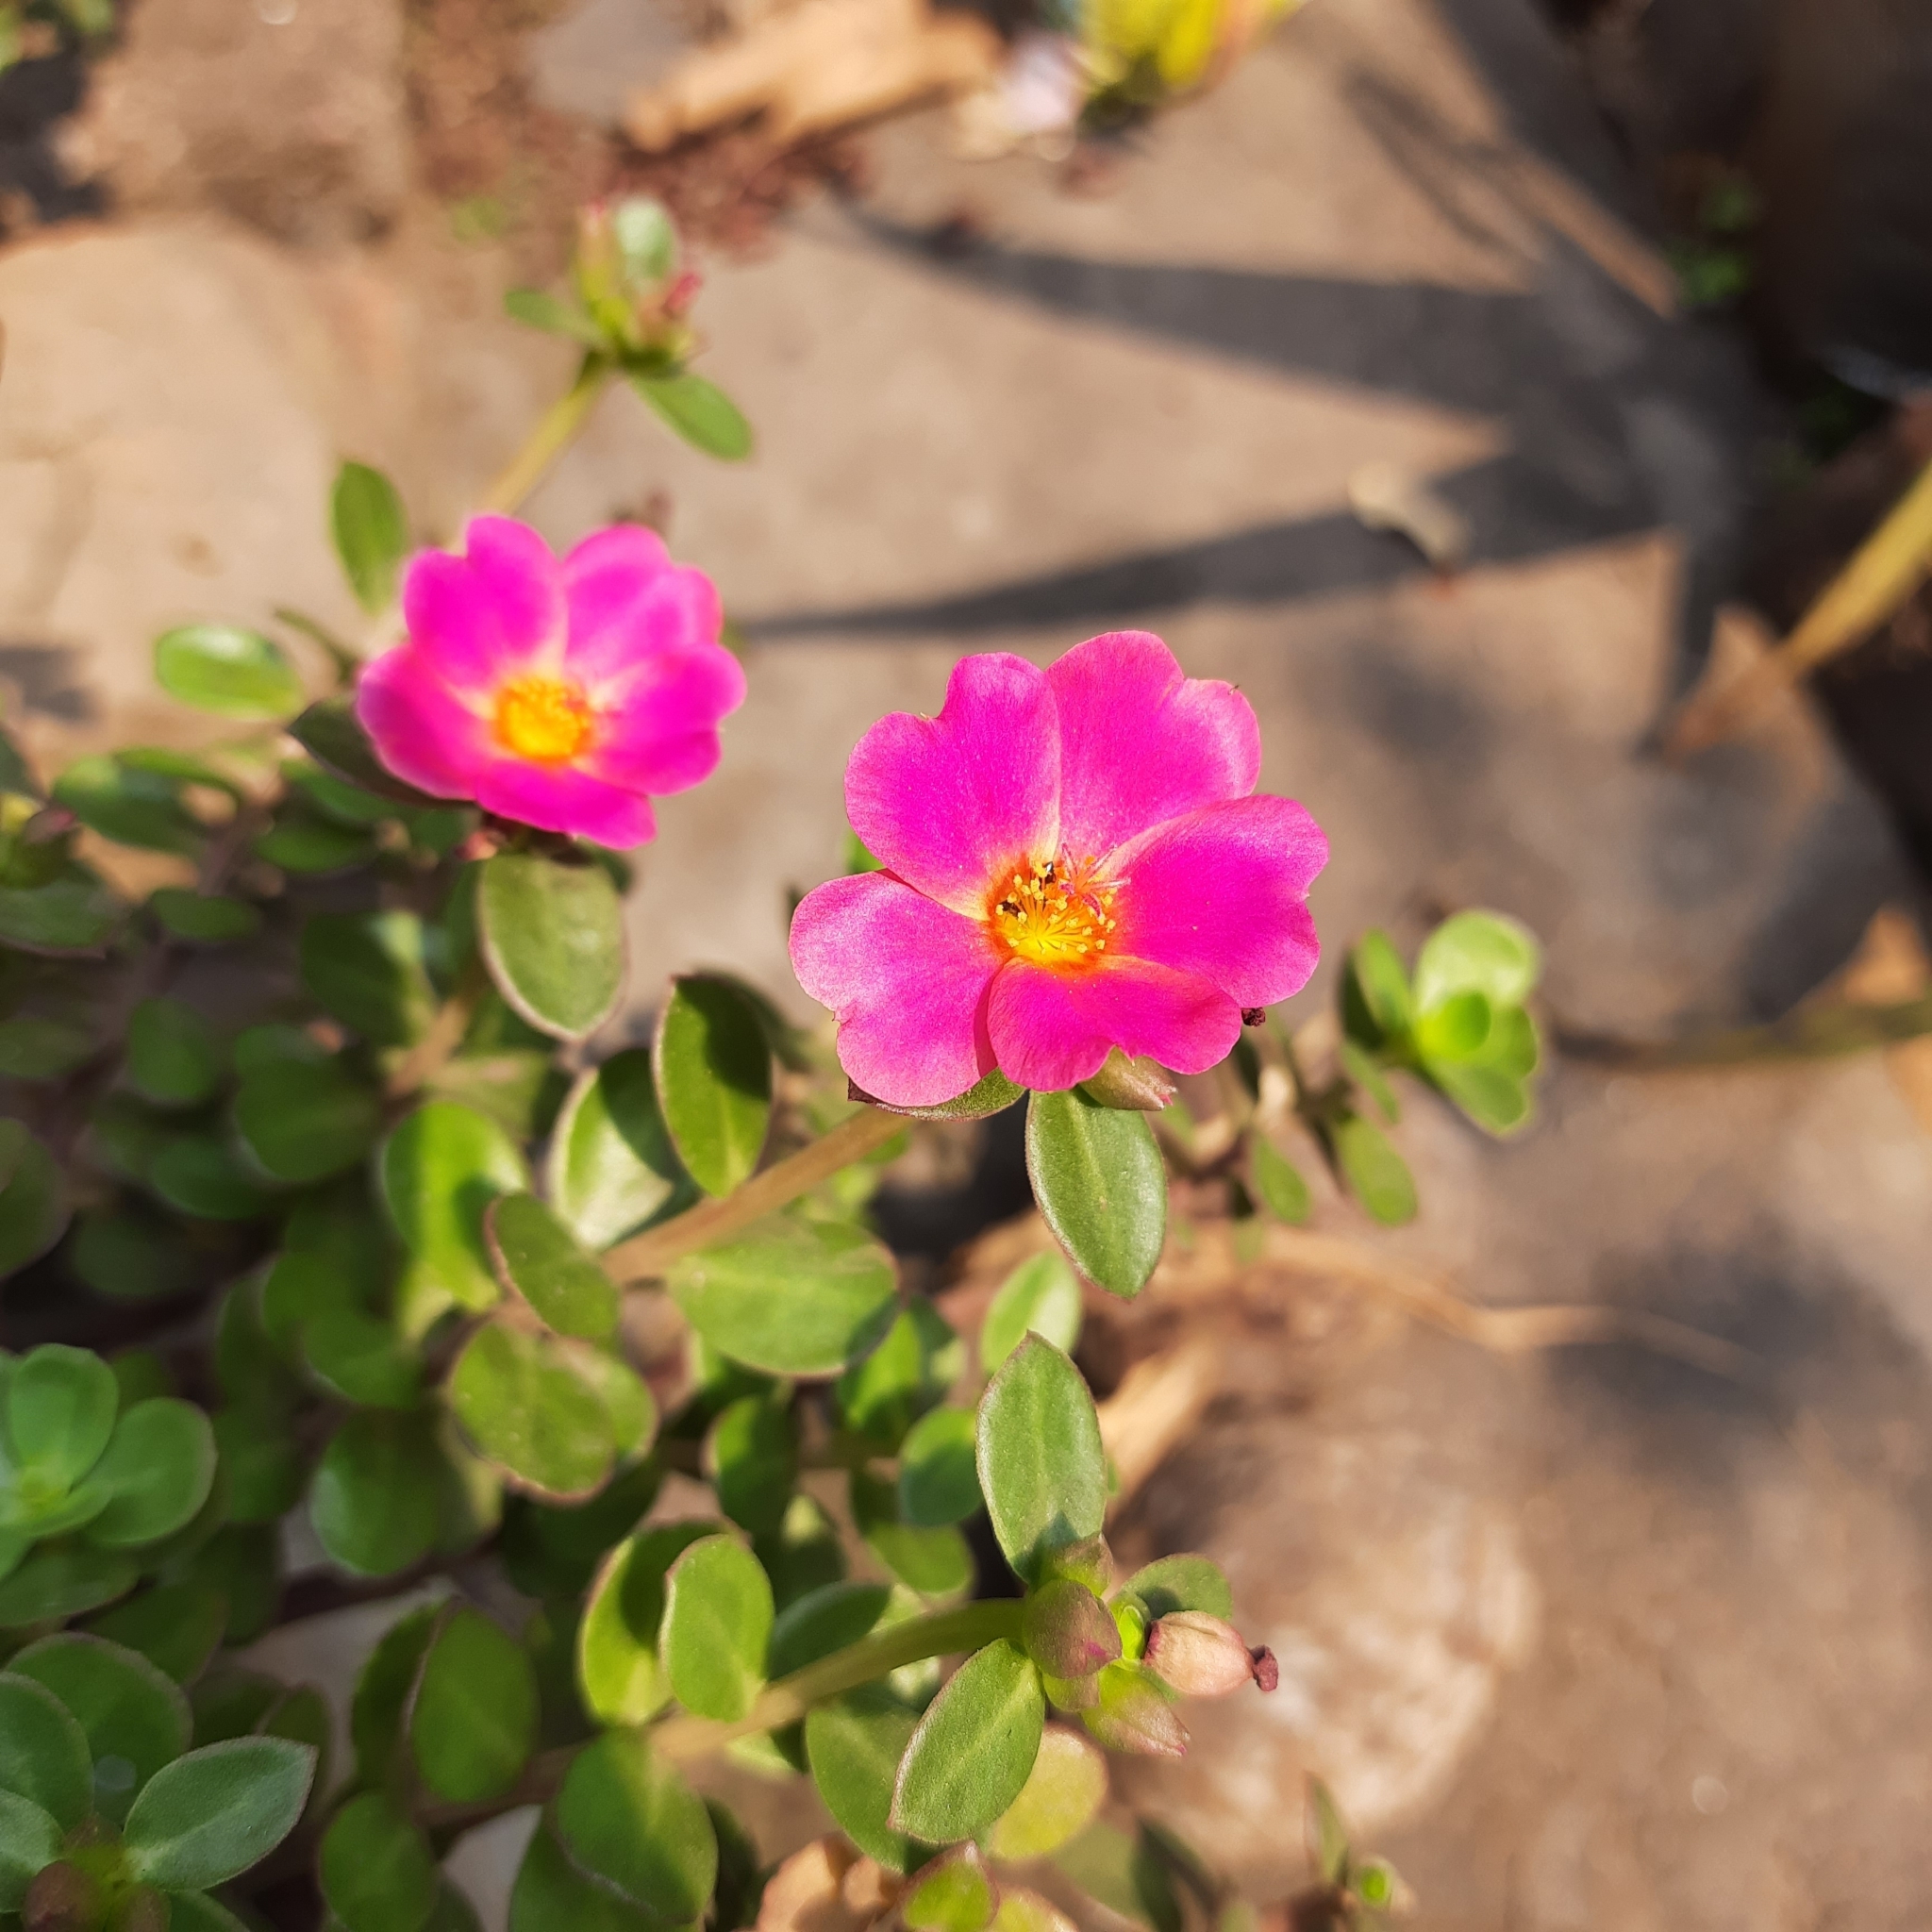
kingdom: Plantae
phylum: Tracheophyta
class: Magnoliopsida
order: Caryophyllales
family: Portulacaceae
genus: Portulaca
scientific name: Portulaca umbraticola
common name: Wingpod purslane
